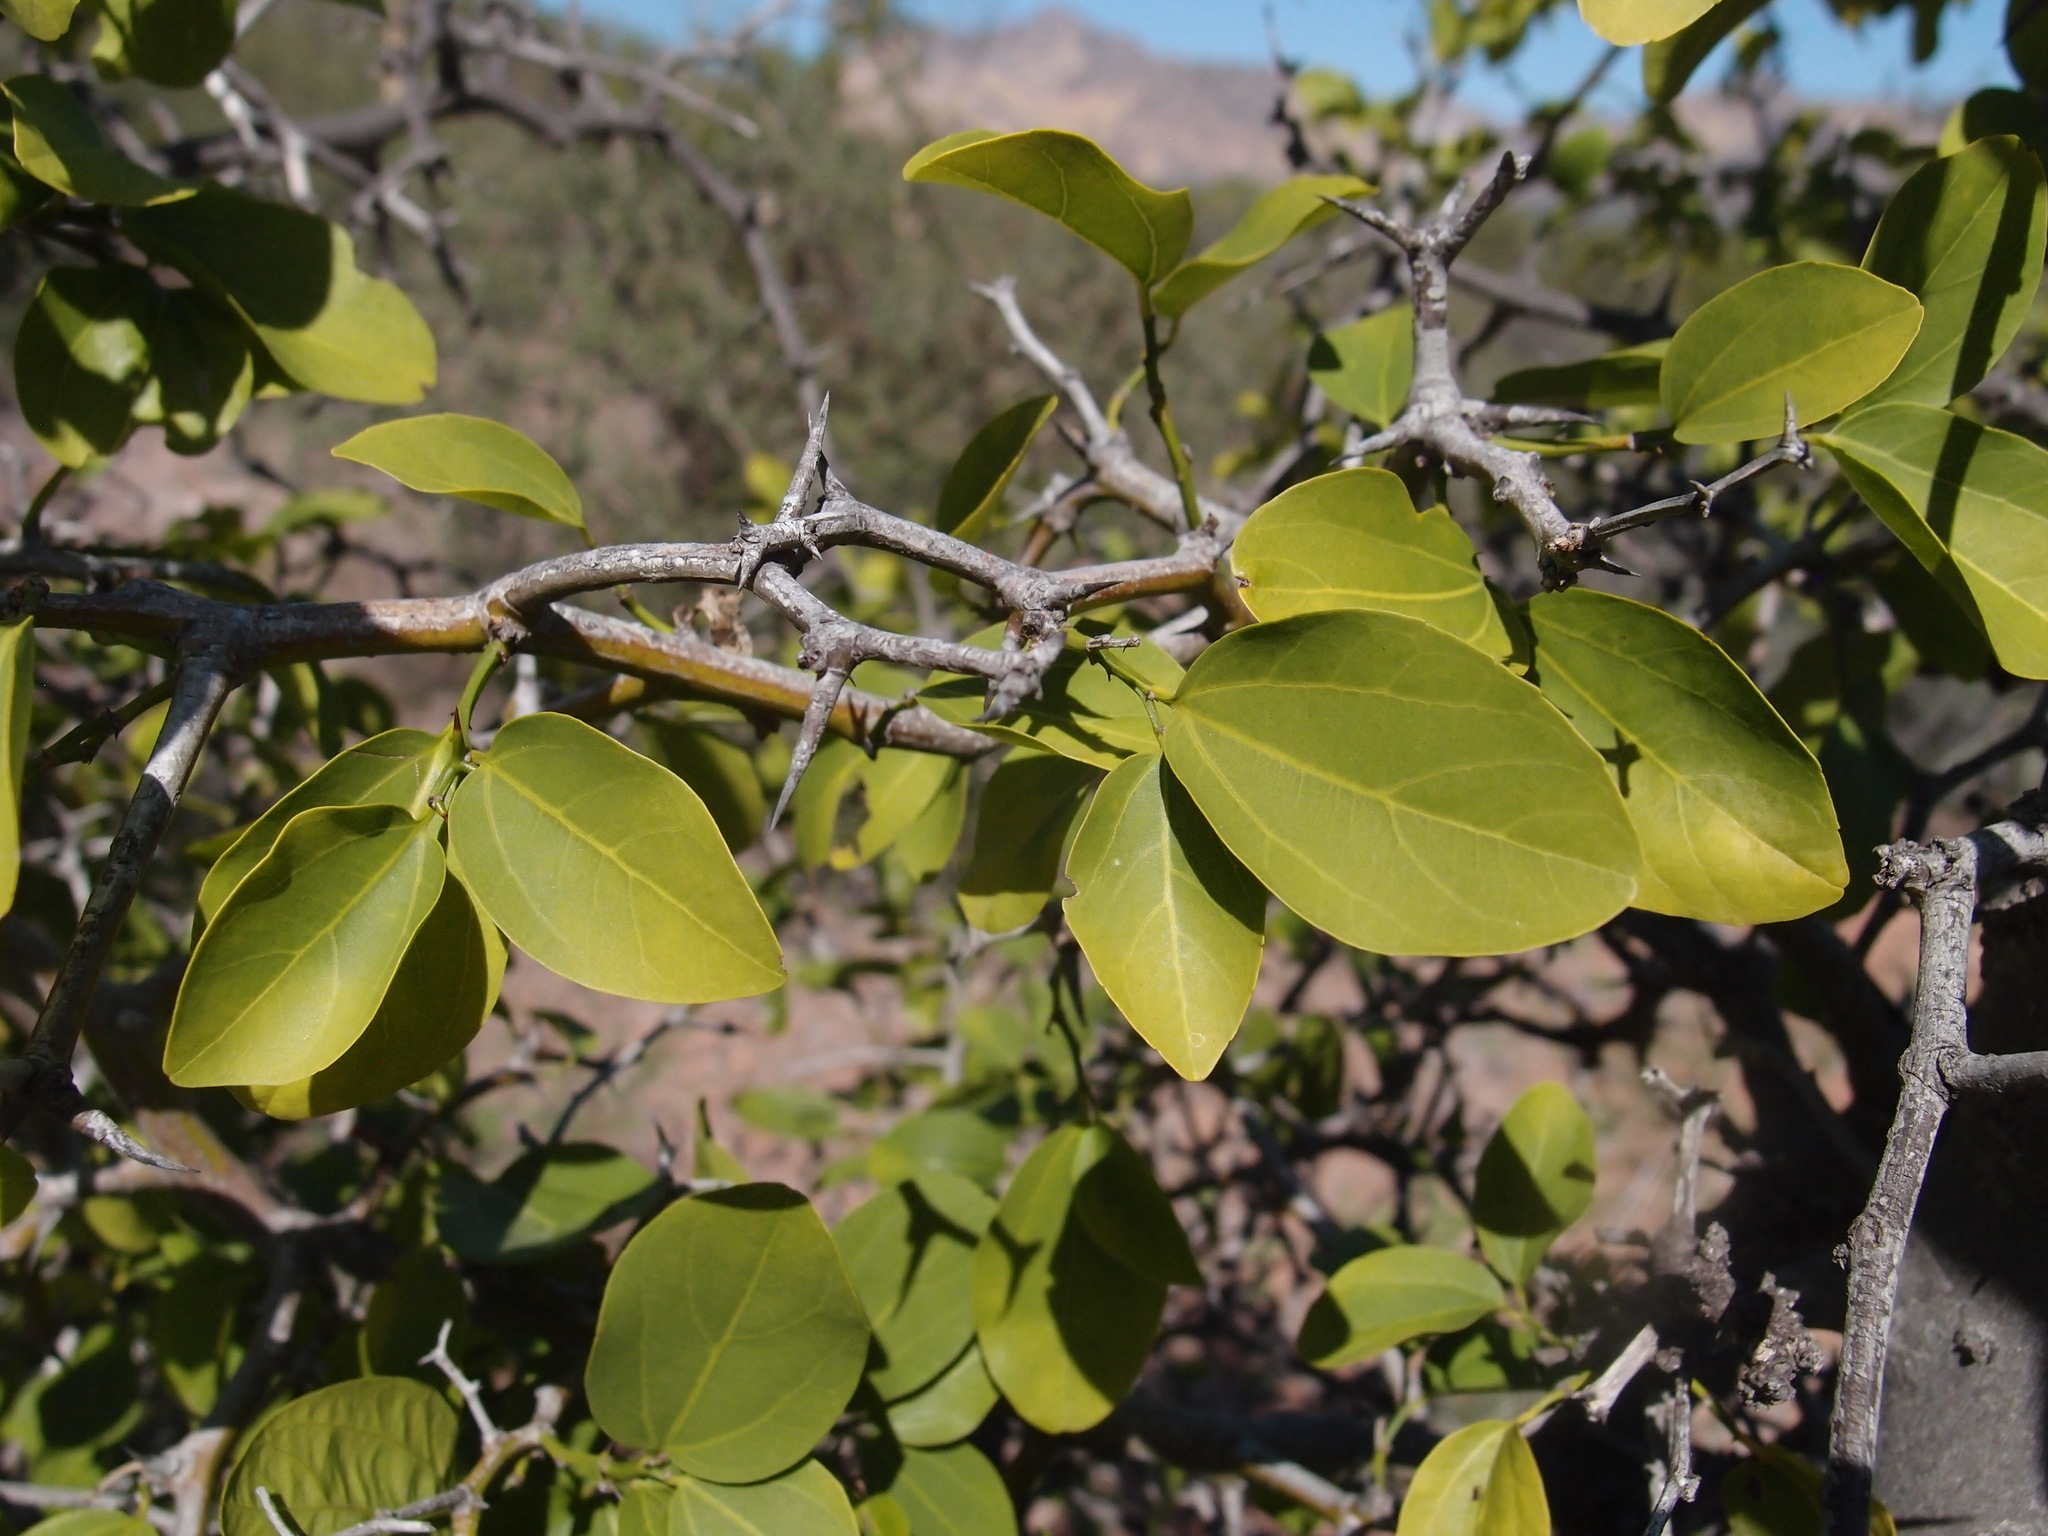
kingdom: Plantae
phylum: Tracheophyta
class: Magnoliopsida
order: Rosales
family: Rhamnaceae
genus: Sarcomphalus
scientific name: Sarcomphalus amole
